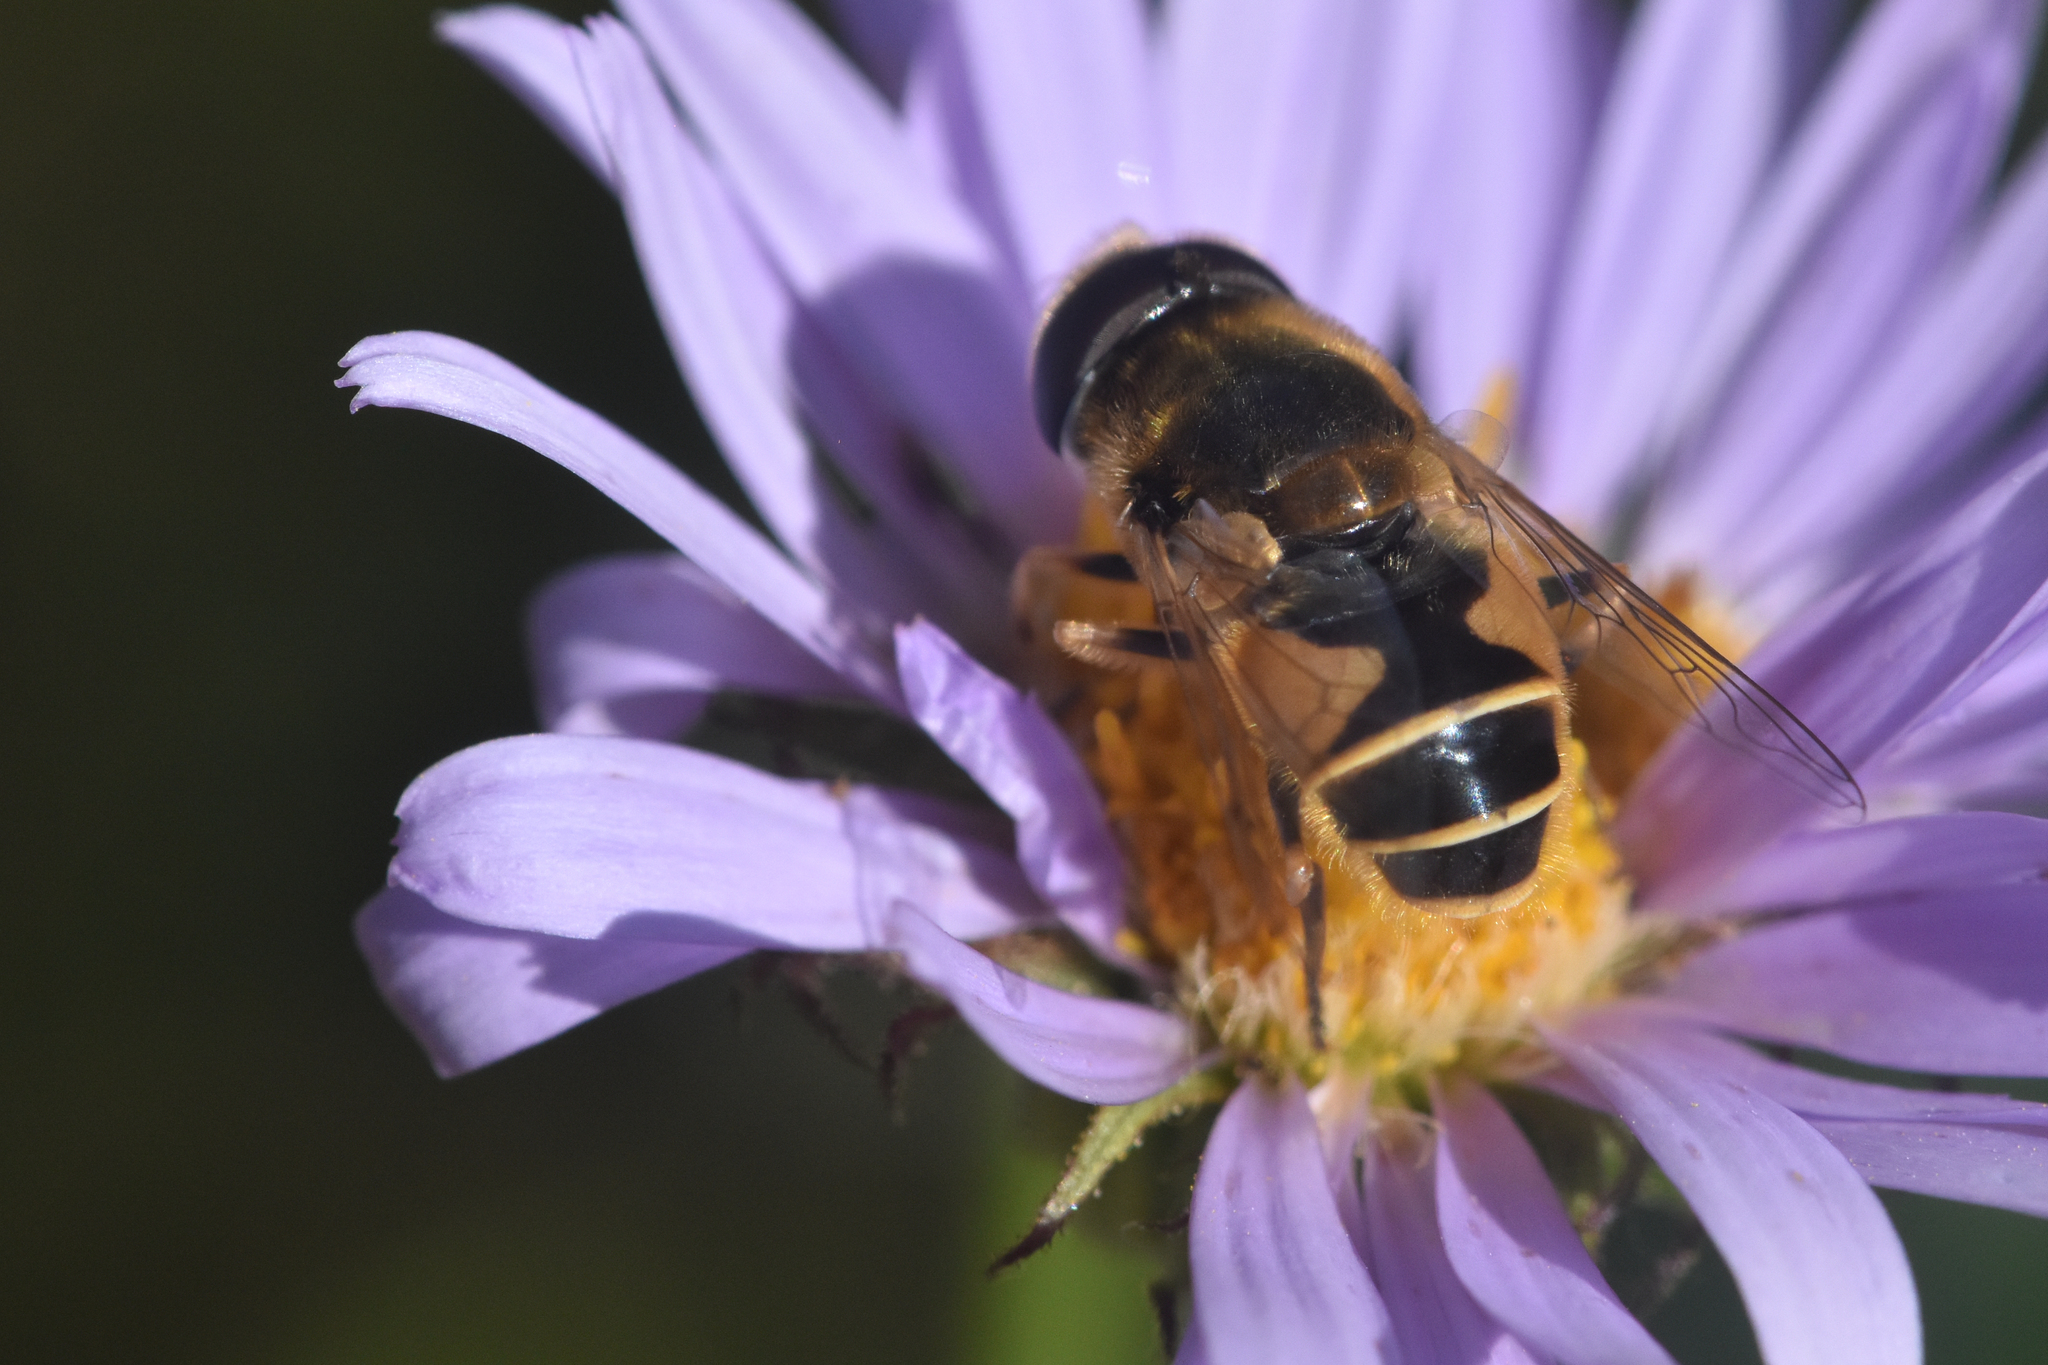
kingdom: Animalia
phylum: Arthropoda
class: Insecta
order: Diptera
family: Syrphidae
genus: Eristalis
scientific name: Eristalis hirta
